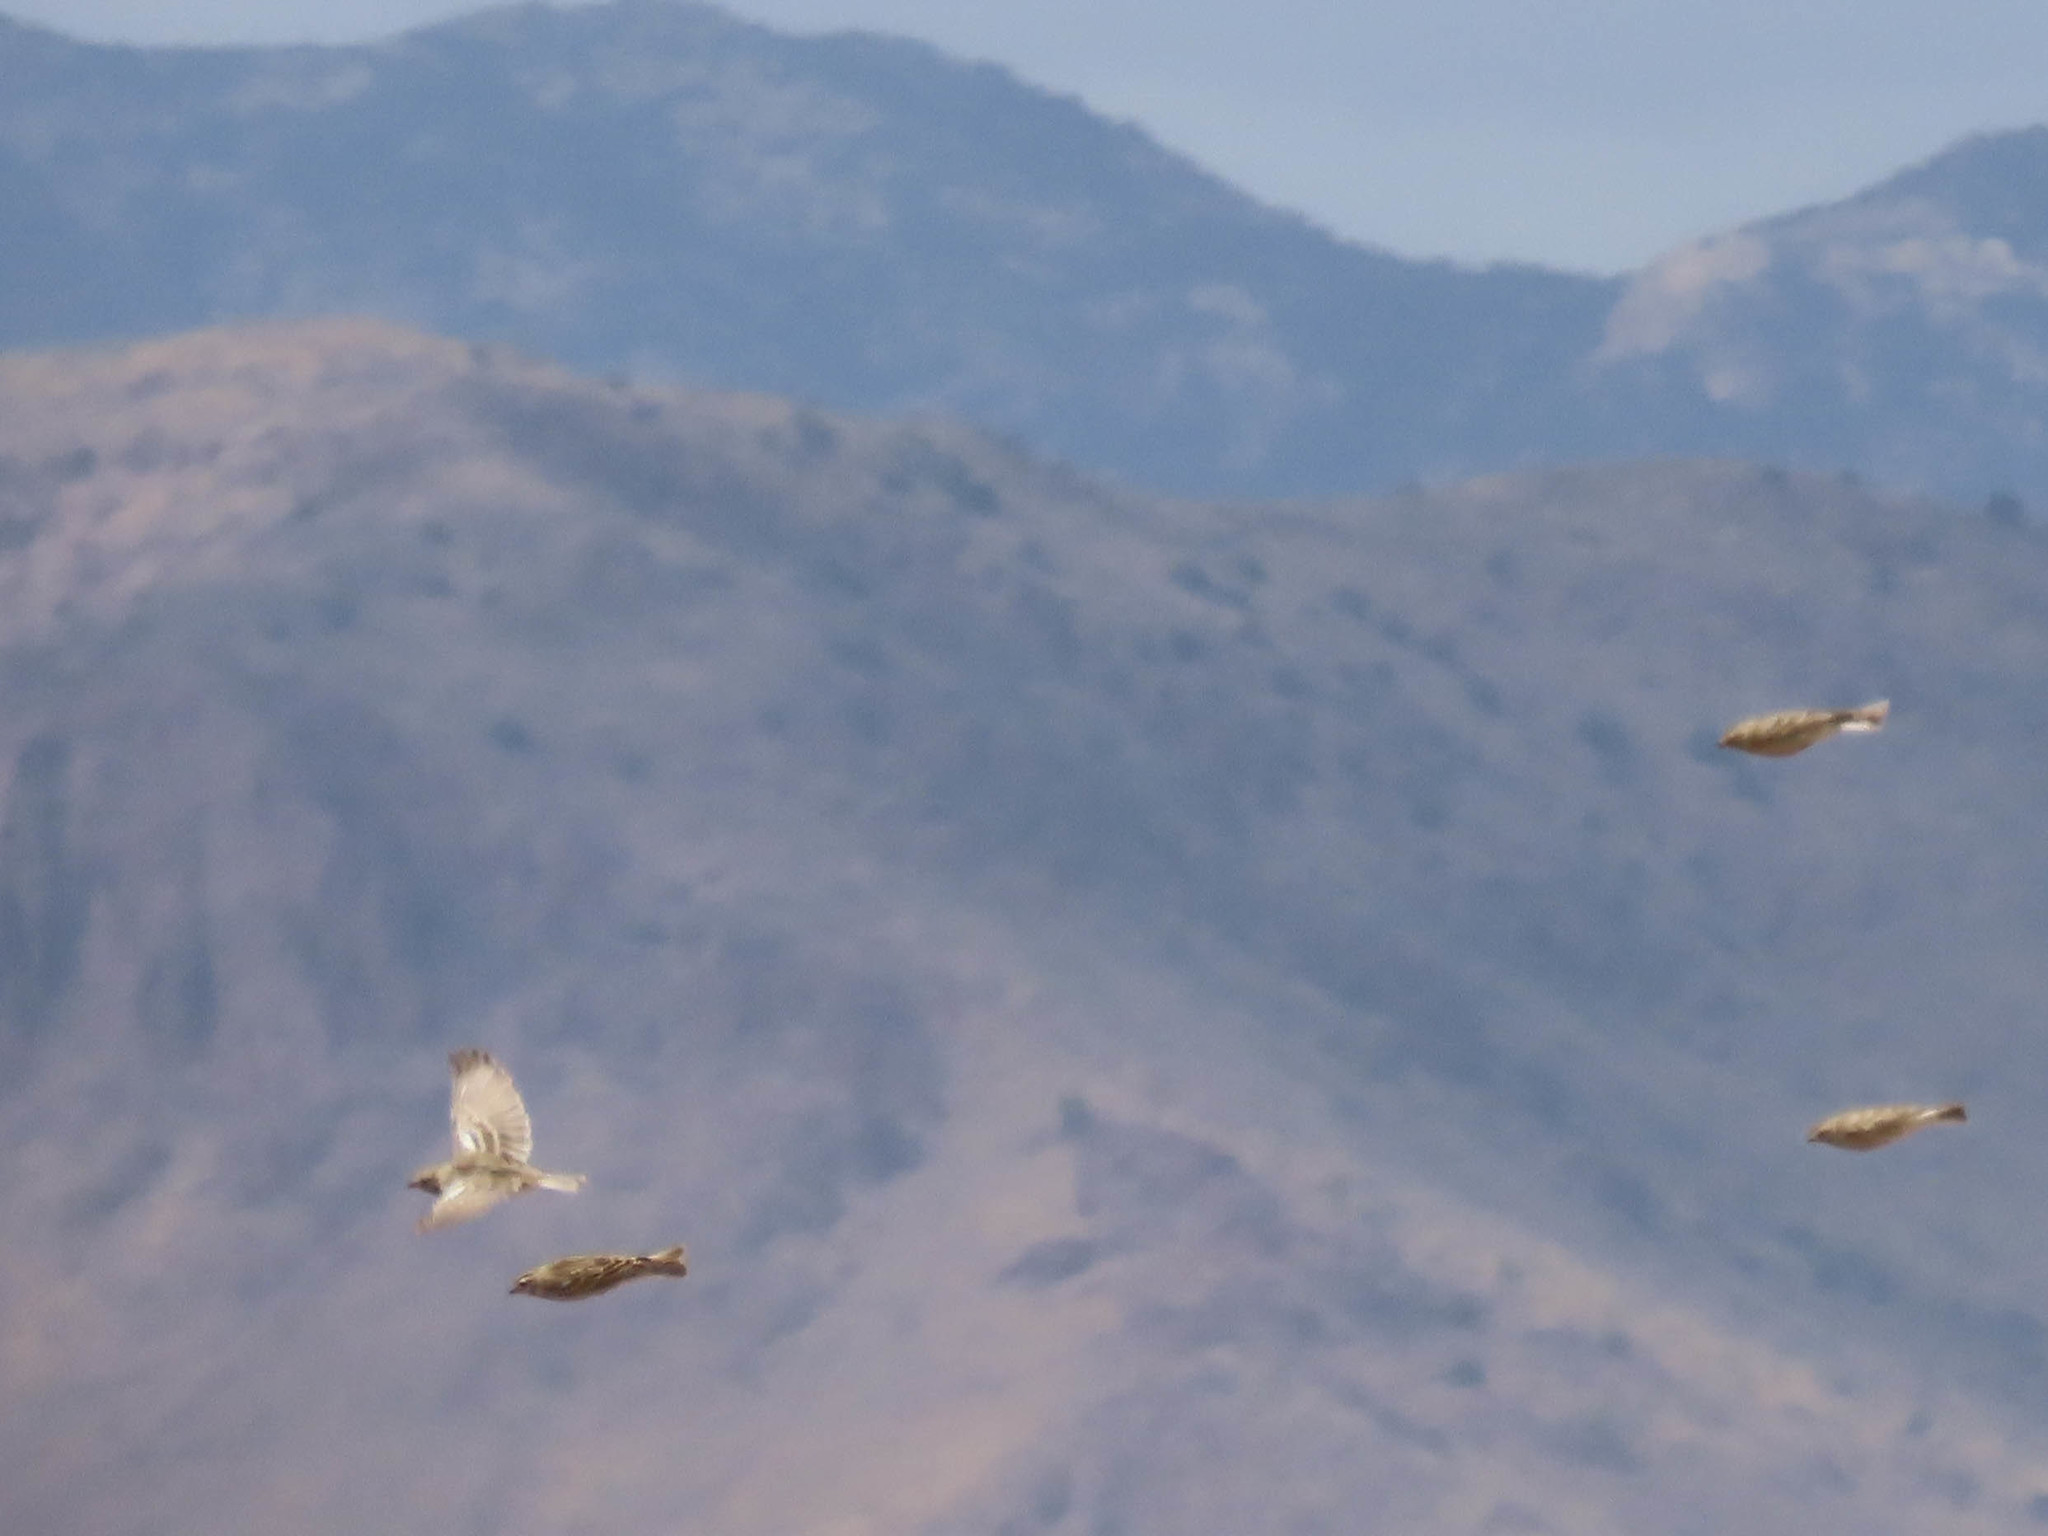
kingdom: Animalia
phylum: Chordata
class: Aves
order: Passeriformes
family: Calcariidae
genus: Calcarius
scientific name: Calcarius ornatus
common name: Chestnut-collared longspur
